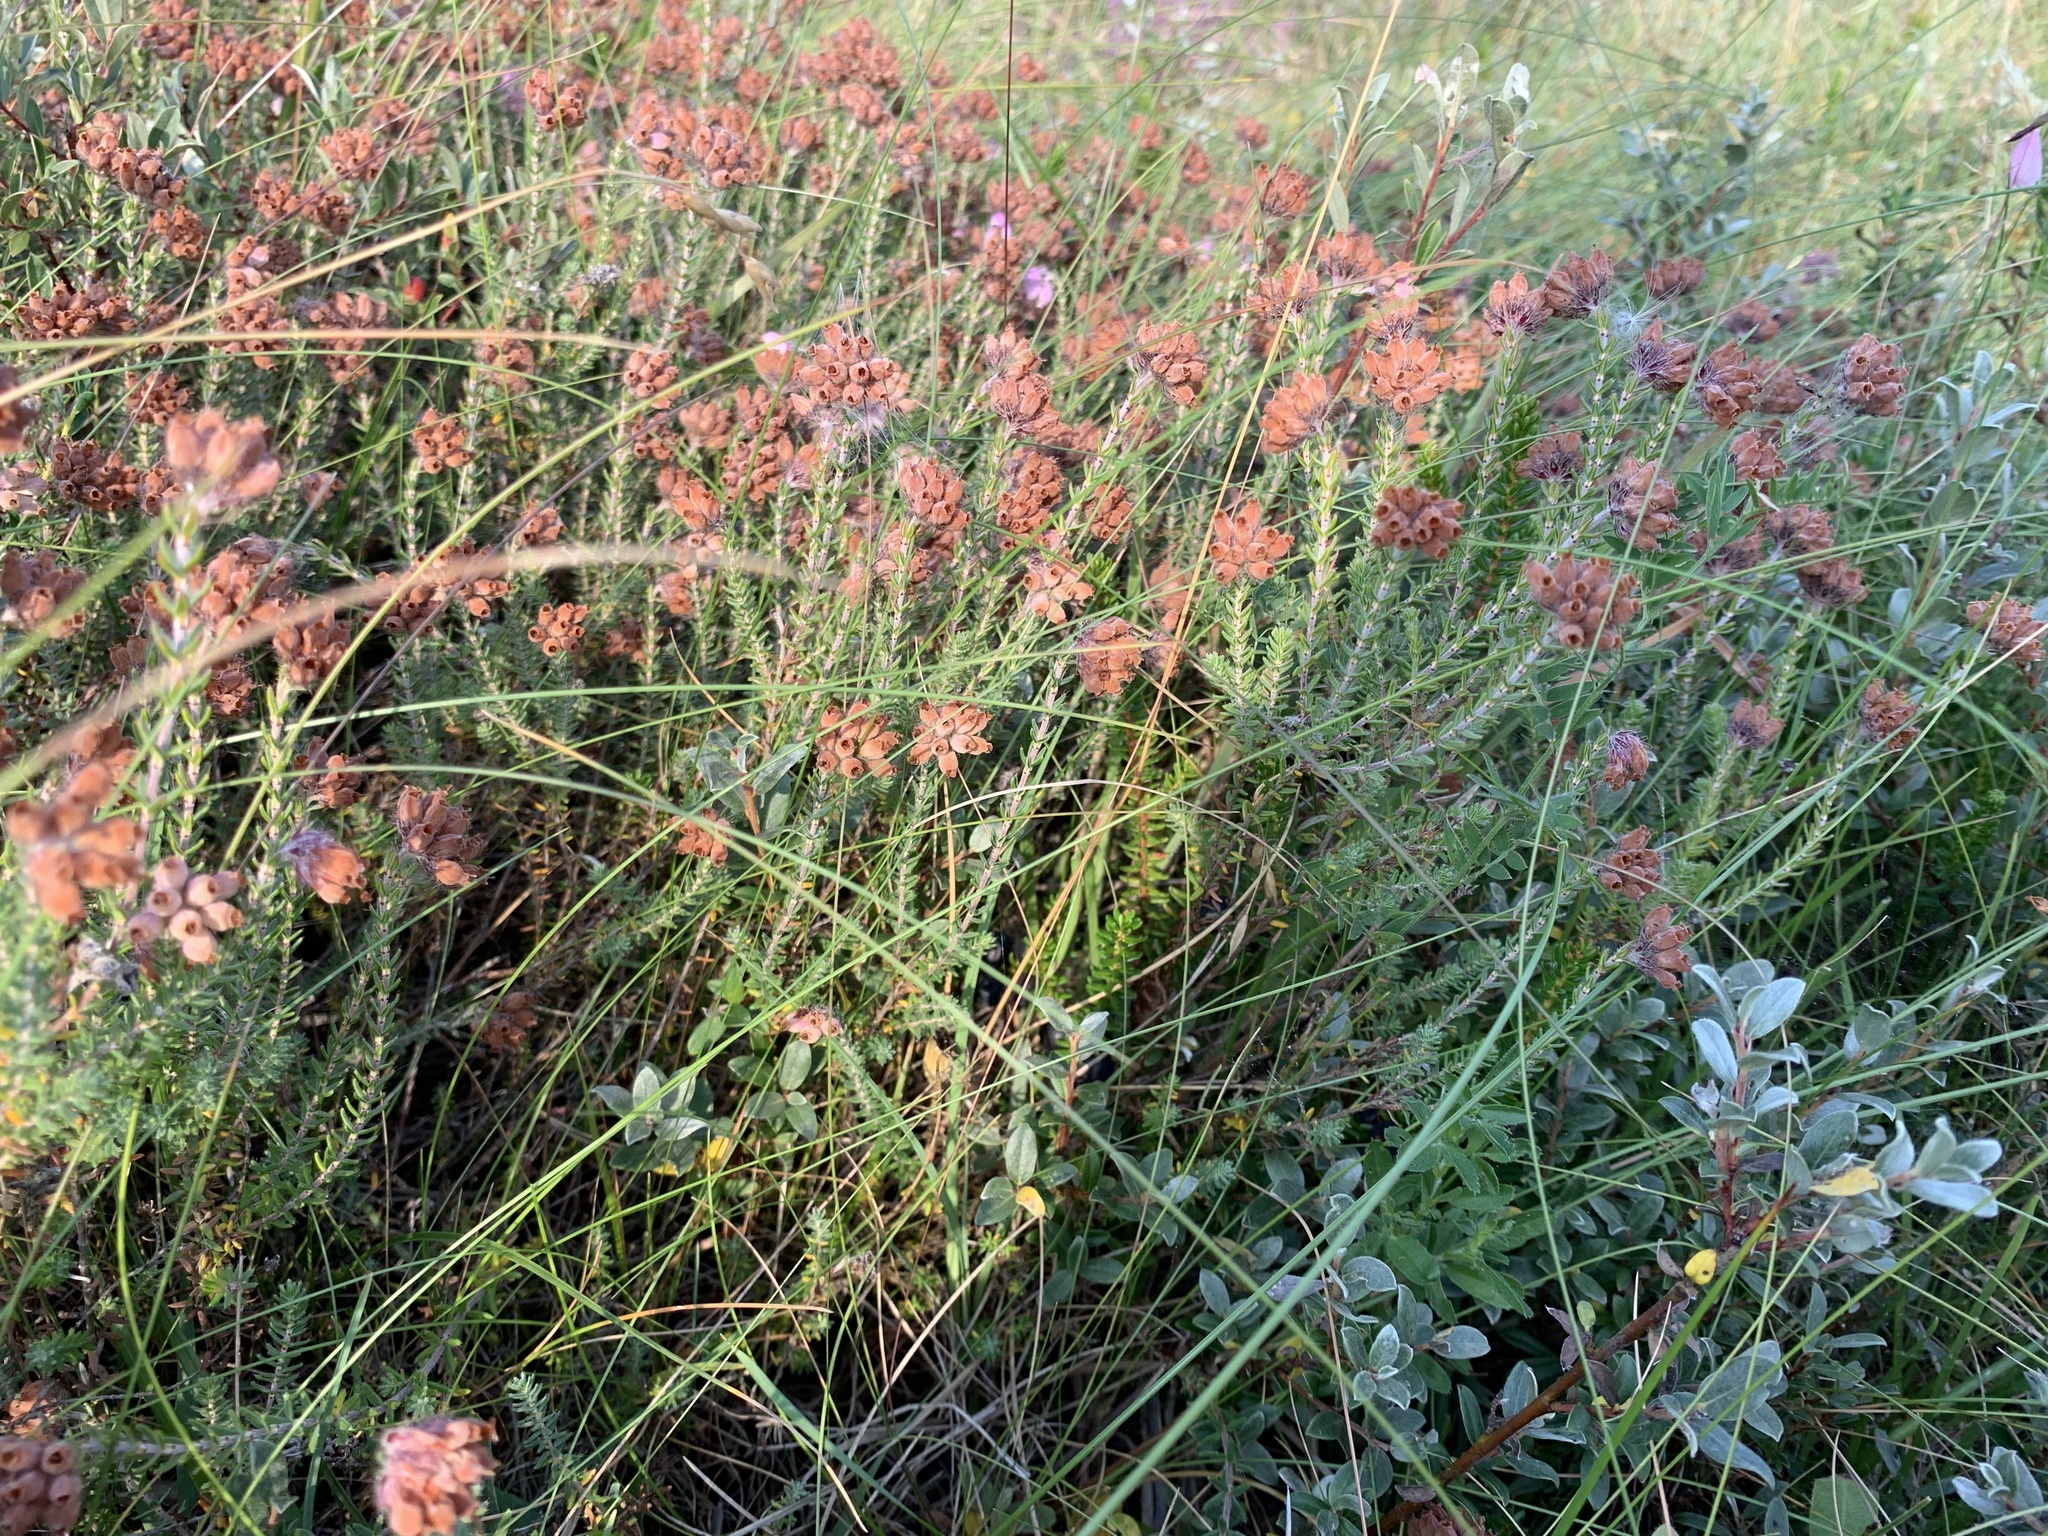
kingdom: Plantae
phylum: Tracheophyta
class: Magnoliopsida
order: Ericales
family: Ericaceae
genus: Erica
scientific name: Erica tetralix
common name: Cross-leaved heath
